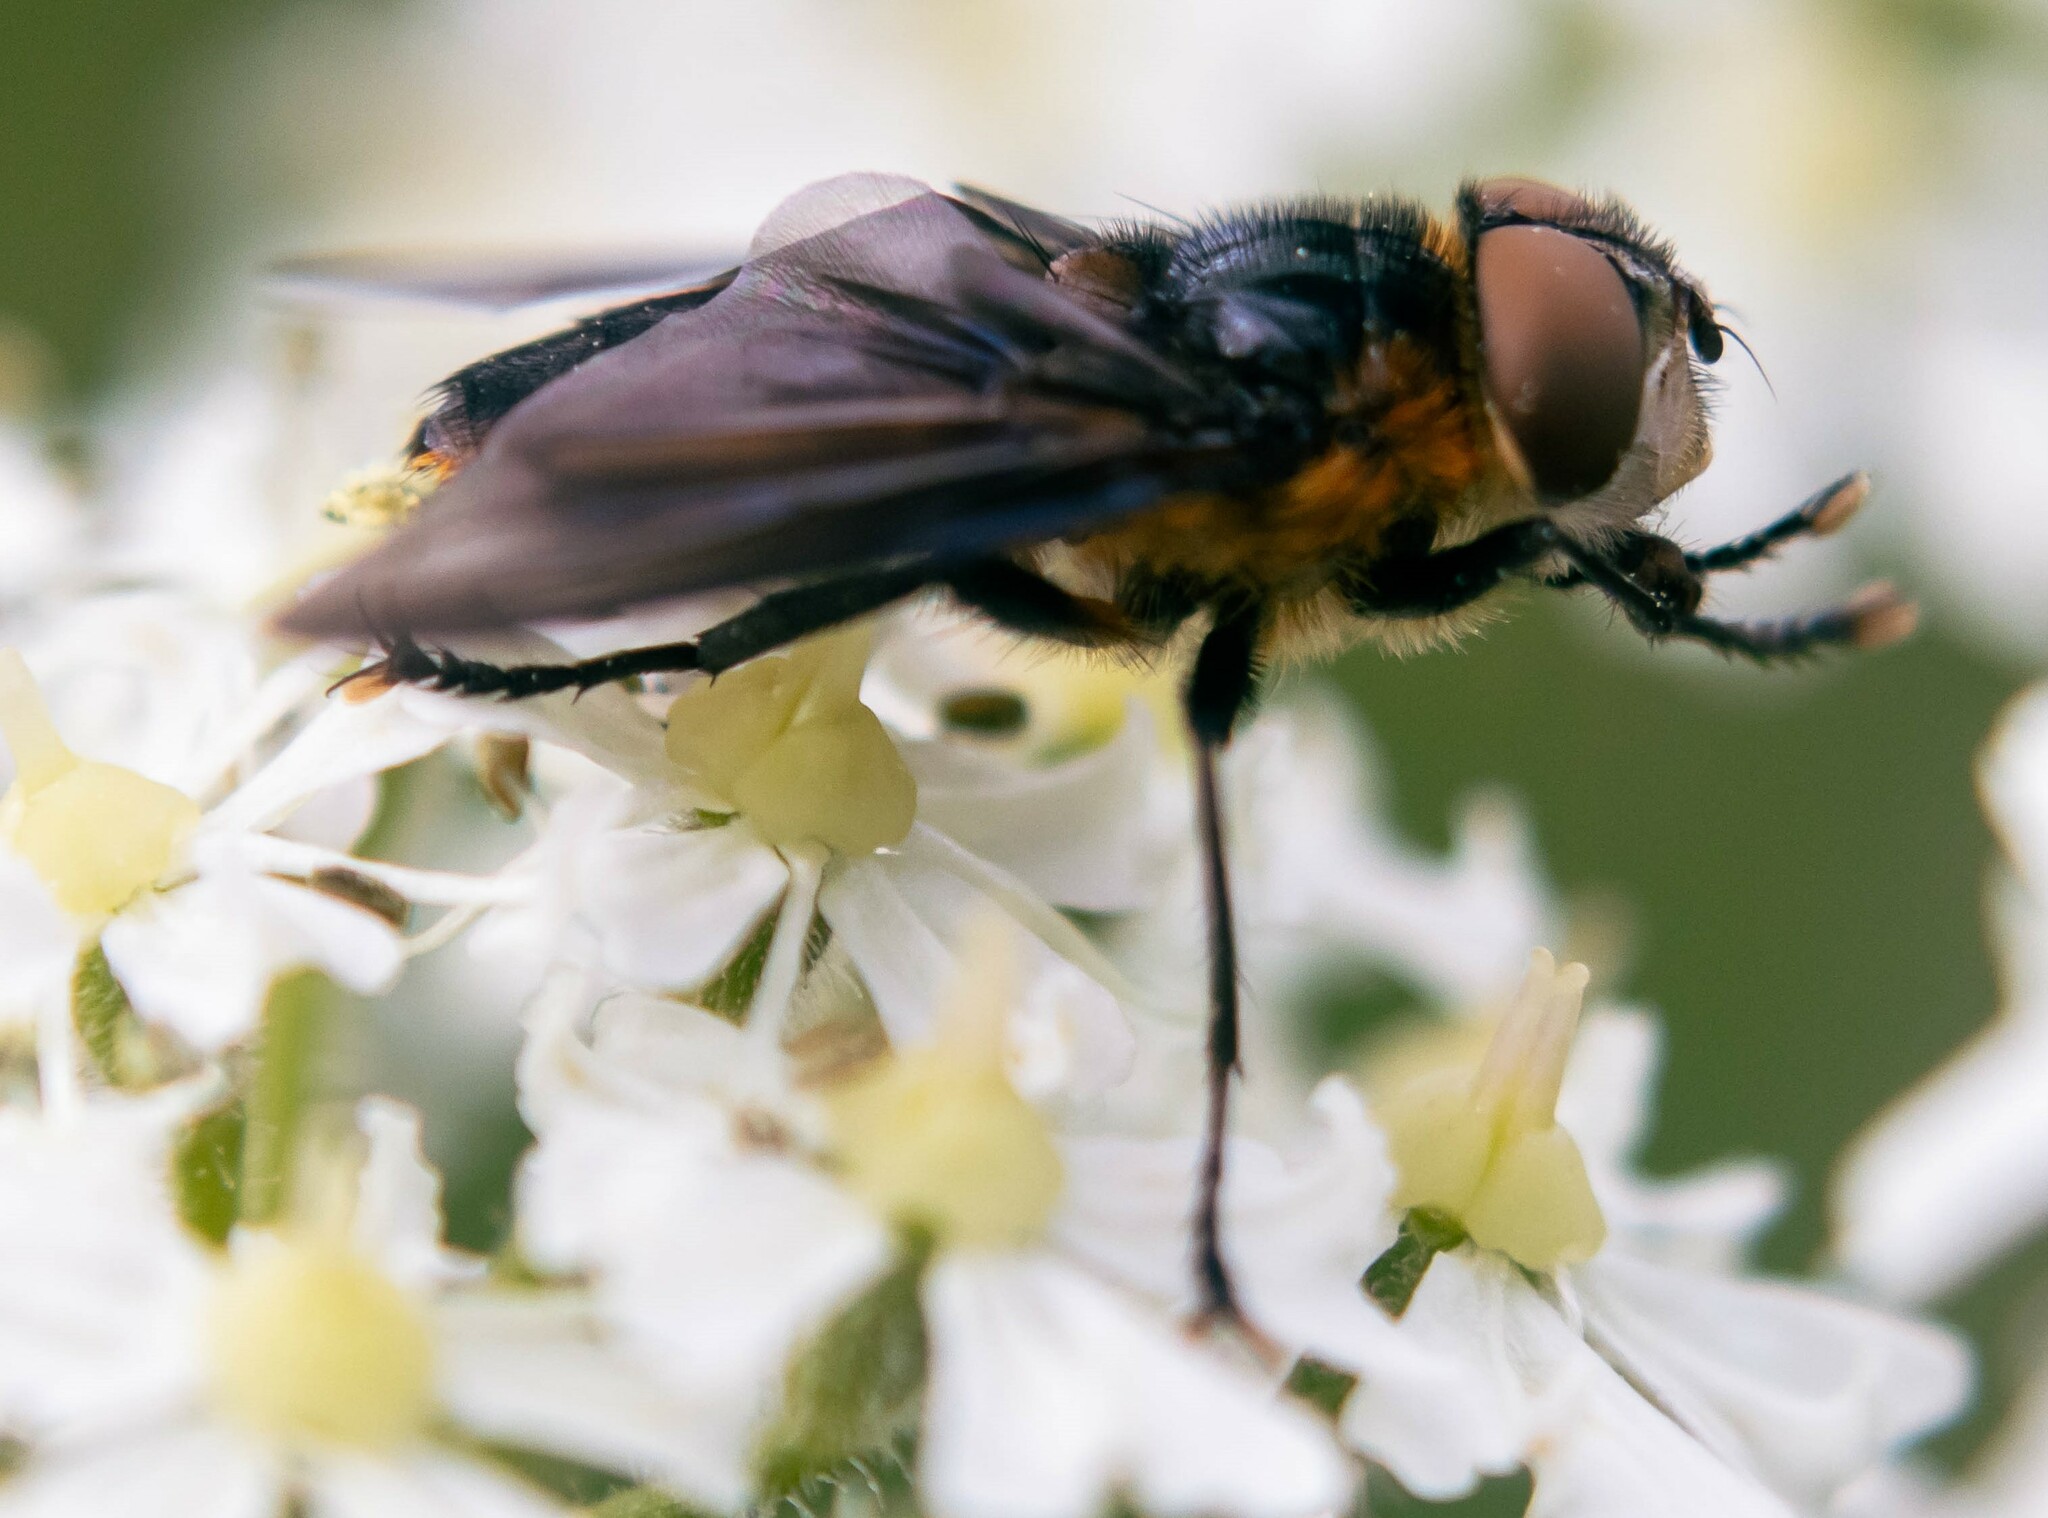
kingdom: Animalia
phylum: Arthropoda
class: Insecta
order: Diptera
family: Tachinidae
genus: Phasia
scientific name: Phasia hemiptera
